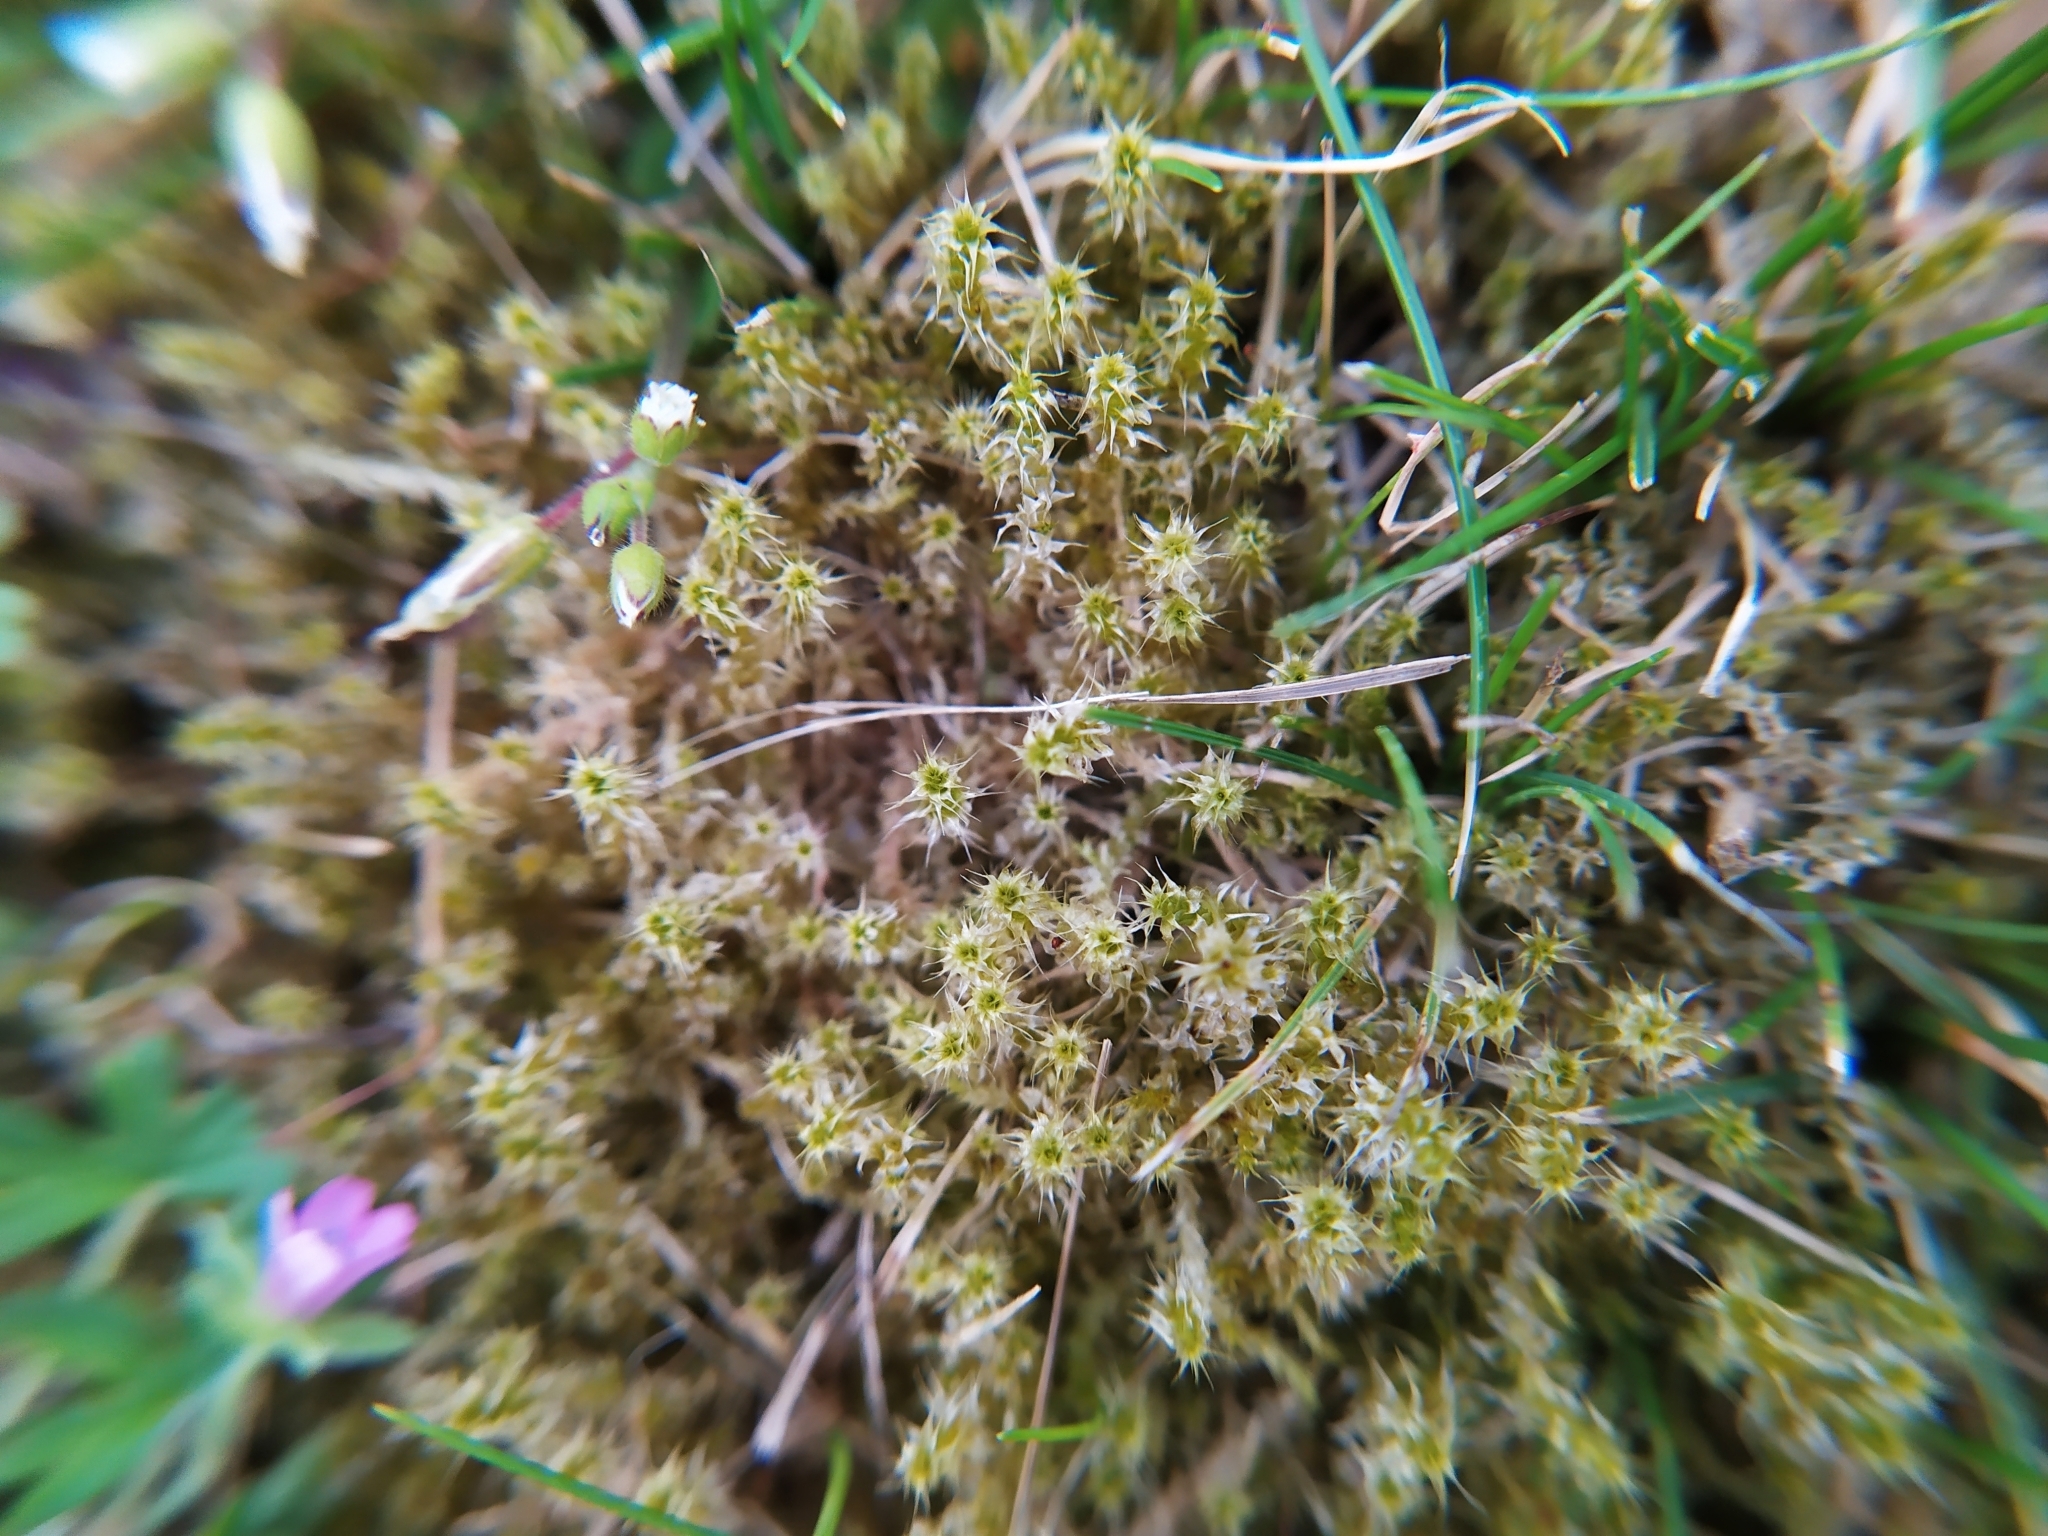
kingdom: Plantae
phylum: Bryophyta
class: Bryopsida
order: Hypnales
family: Hylocomiaceae
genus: Rhytidiadelphus
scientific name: Rhytidiadelphus squarrosus
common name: Springy turf-moss
